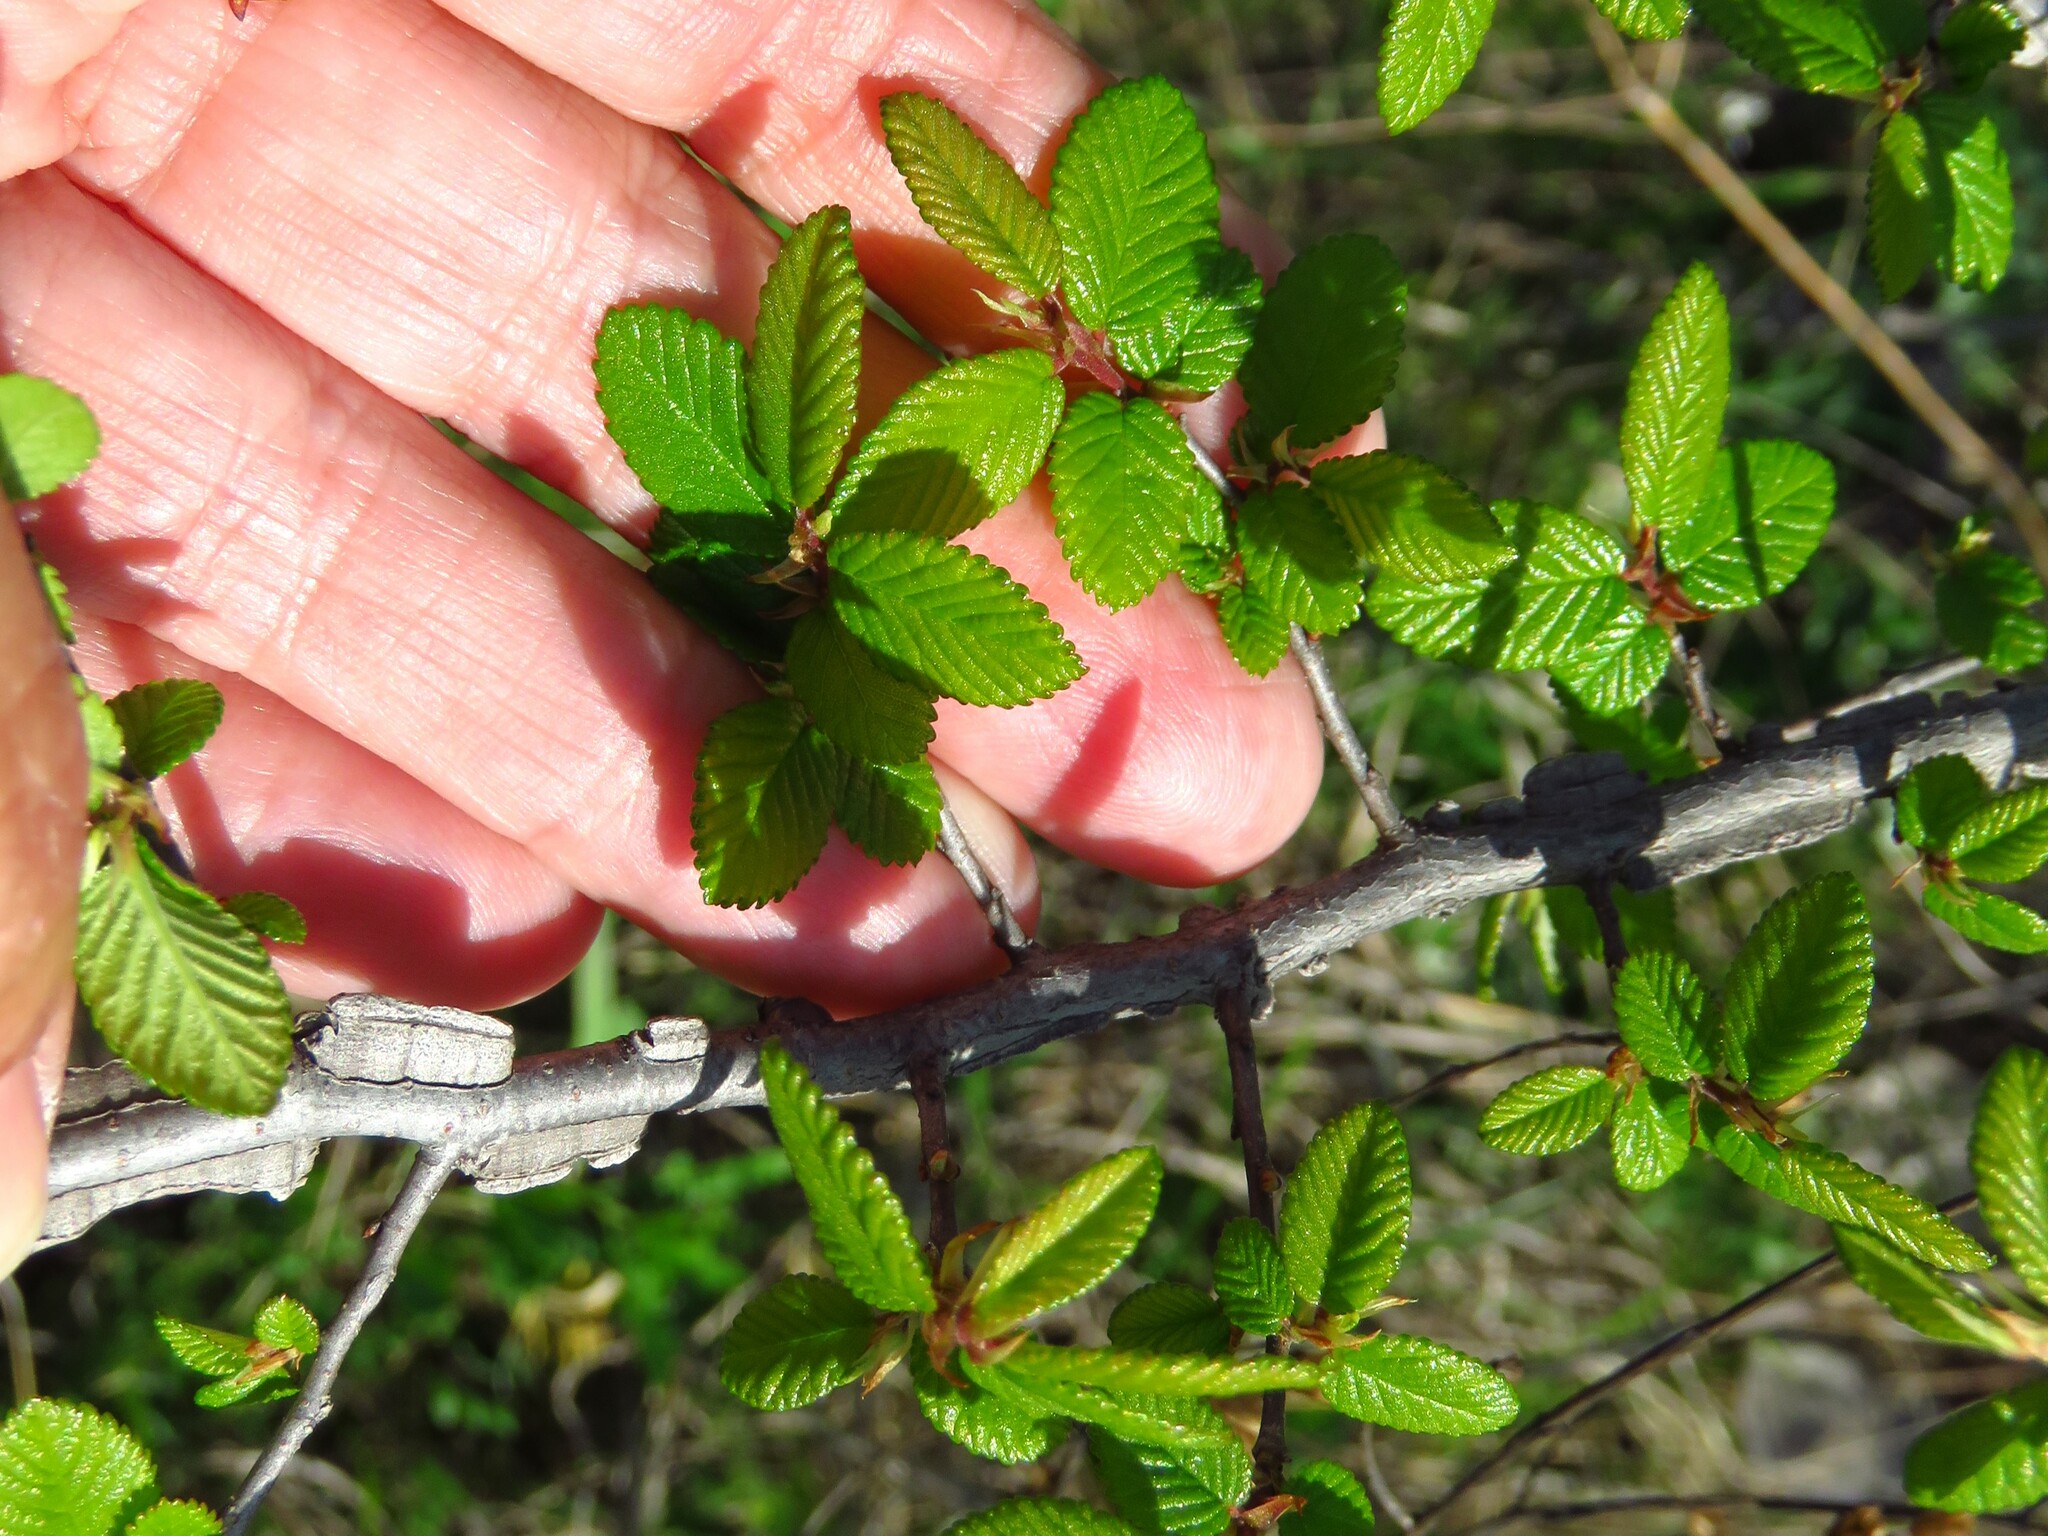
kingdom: Plantae
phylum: Tracheophyta
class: Magnoliopsida
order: Rosales
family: Ulmaceae
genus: Ulmus
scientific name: Ulmus alata
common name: Winged elm
